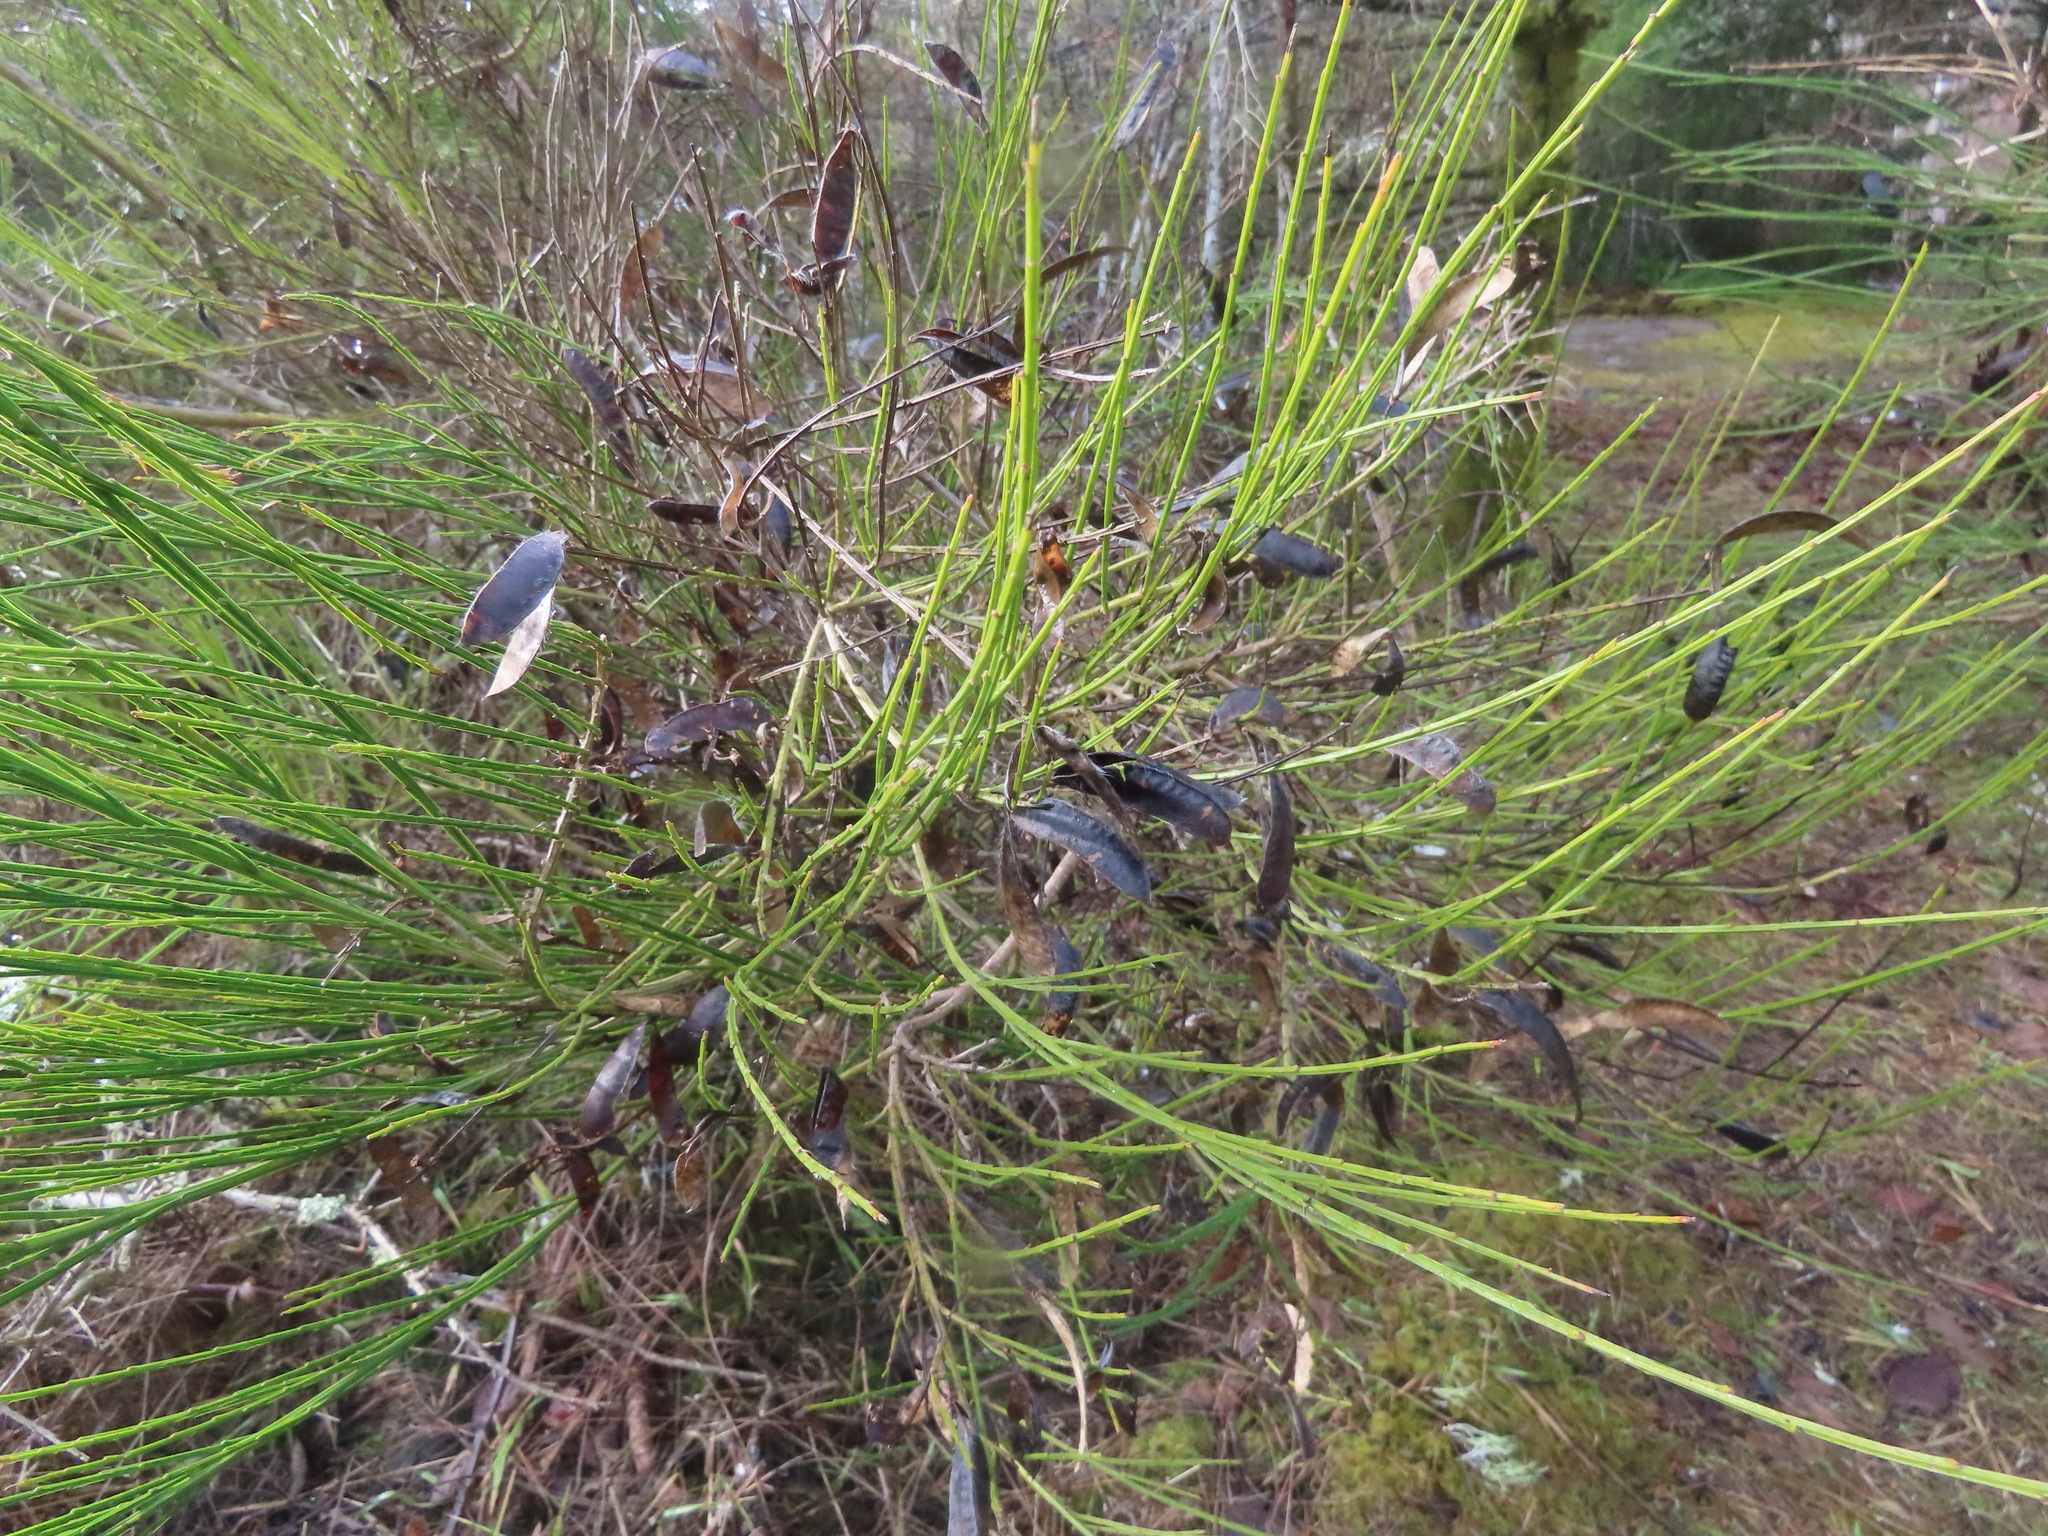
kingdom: Plantae
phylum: Tracheophyta
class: Magnoliopsida
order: Fabales
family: Fabaceae
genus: Cytisus
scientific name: Cytisus scoparius
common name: Scotch broom
